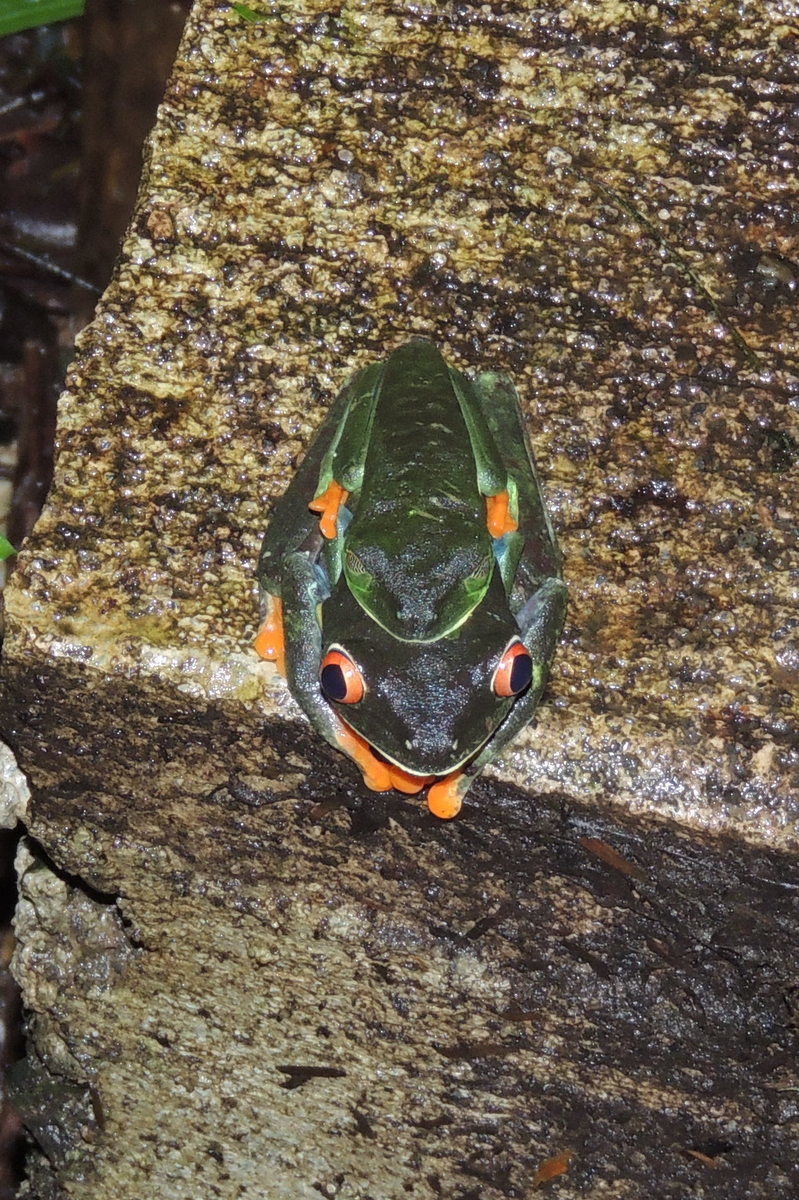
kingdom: Animalia
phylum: Chordata
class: Amphibia
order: Anura
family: Phyllomedusidae
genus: Agalychnis
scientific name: Agalychnis callidryas
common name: Red-eyed treefrog
